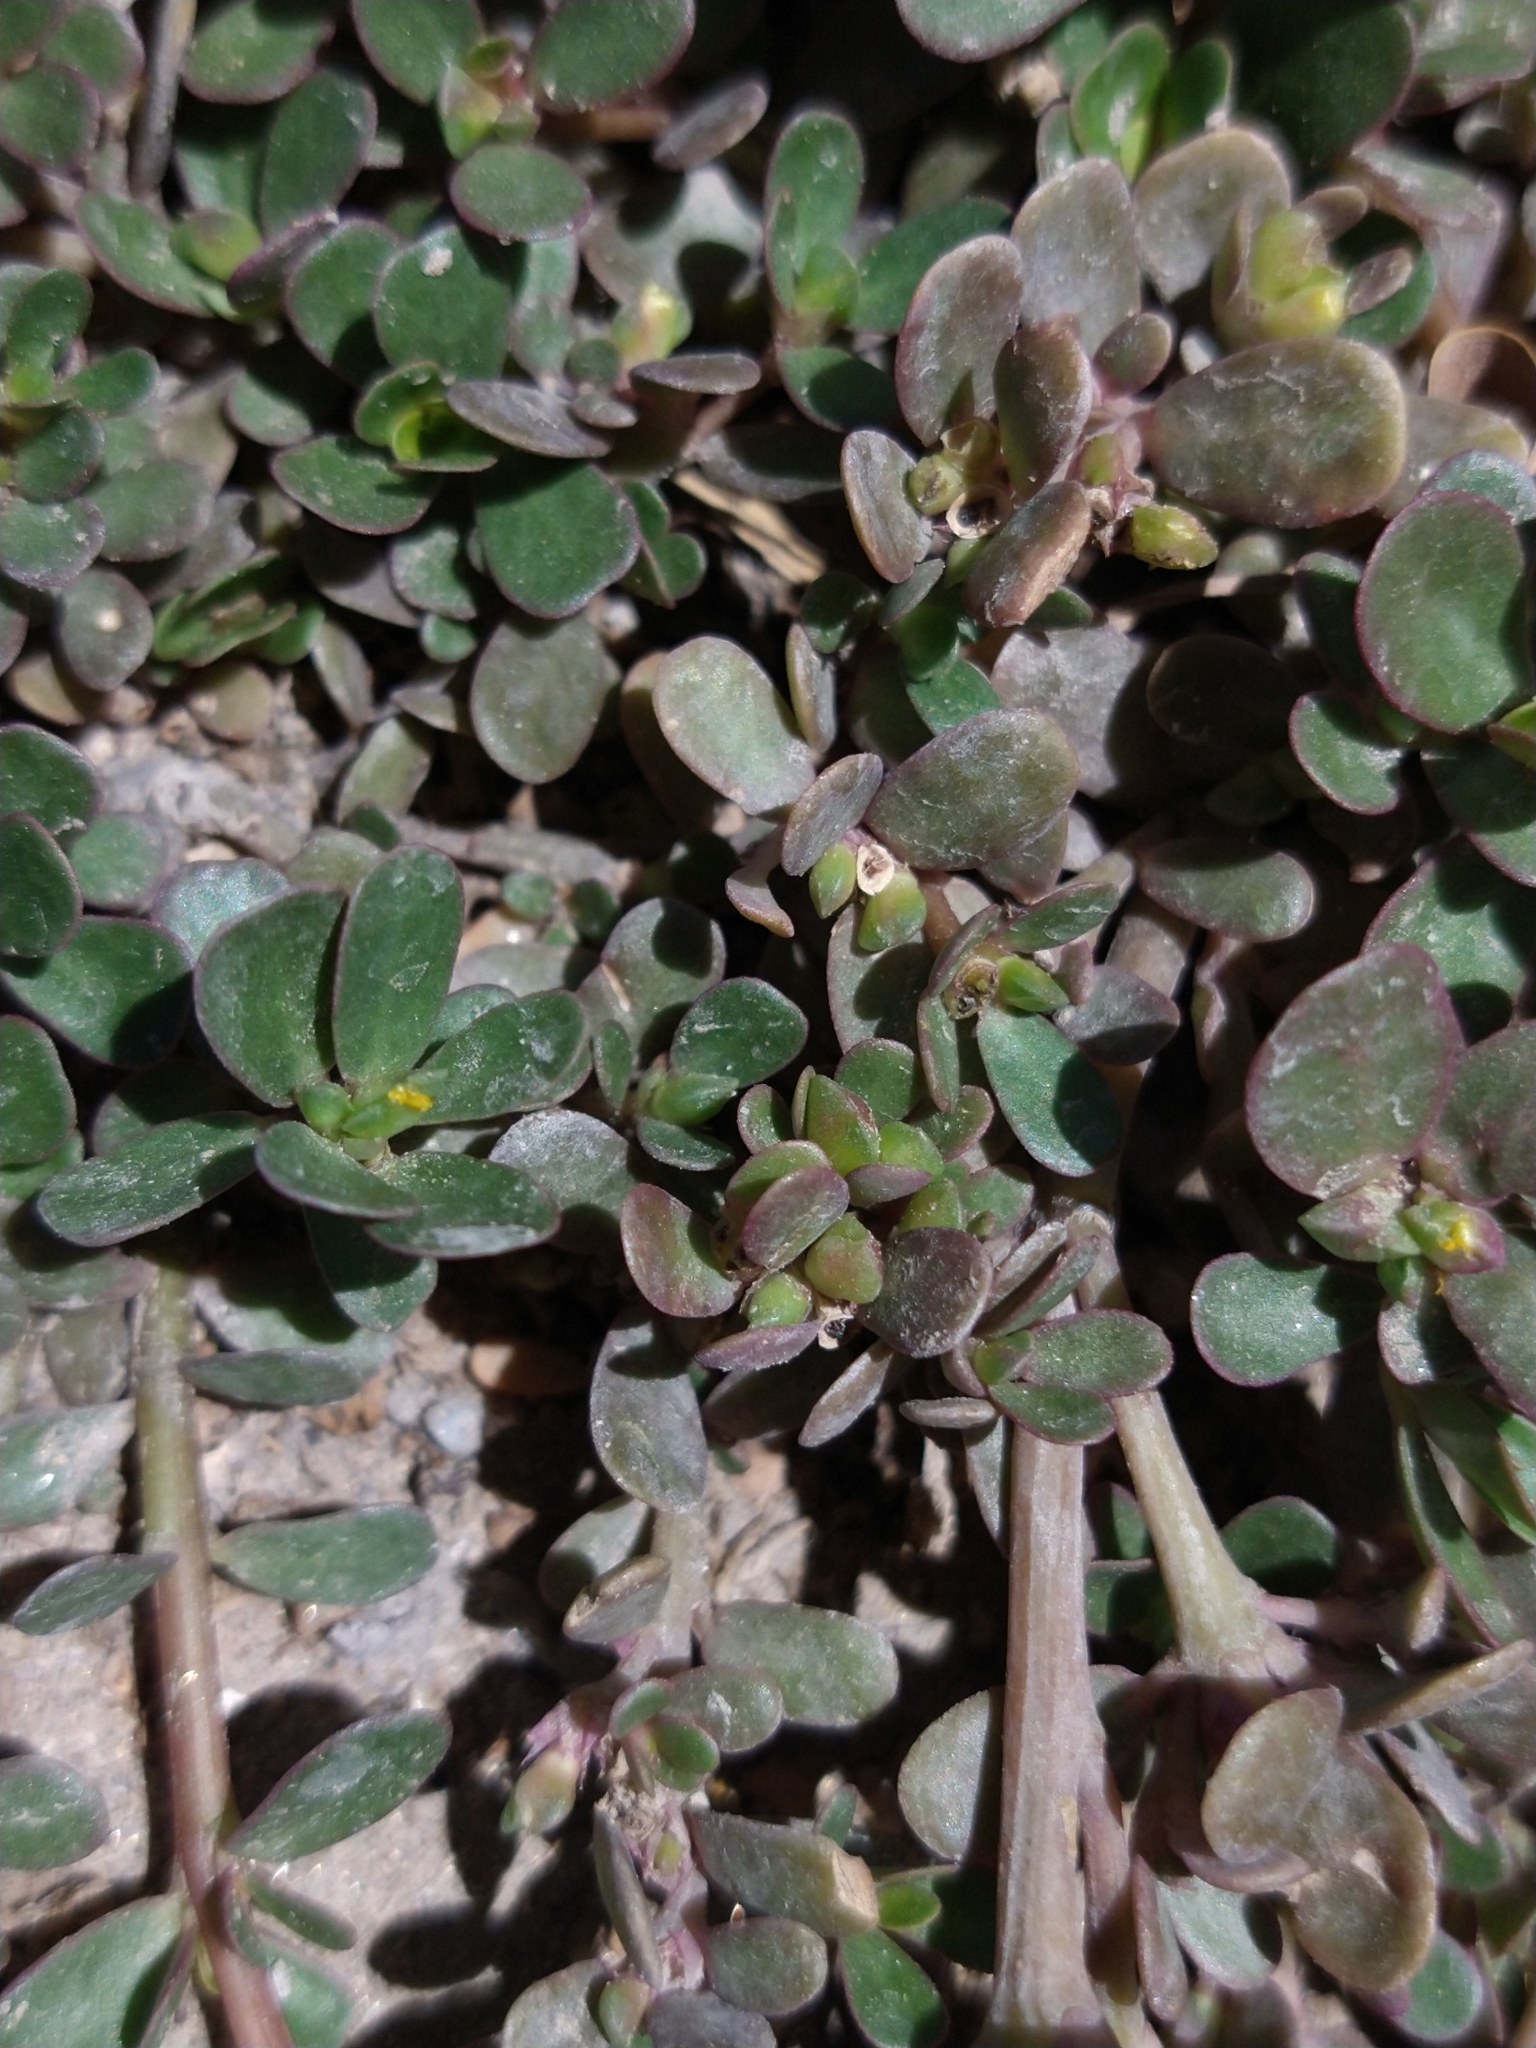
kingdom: Plantae
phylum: Tracheophyta
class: Magnoliopsida
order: Caryophyllales
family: Portulacaceae
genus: Portulaca
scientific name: Portulaca oleracea
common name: Common purslane
